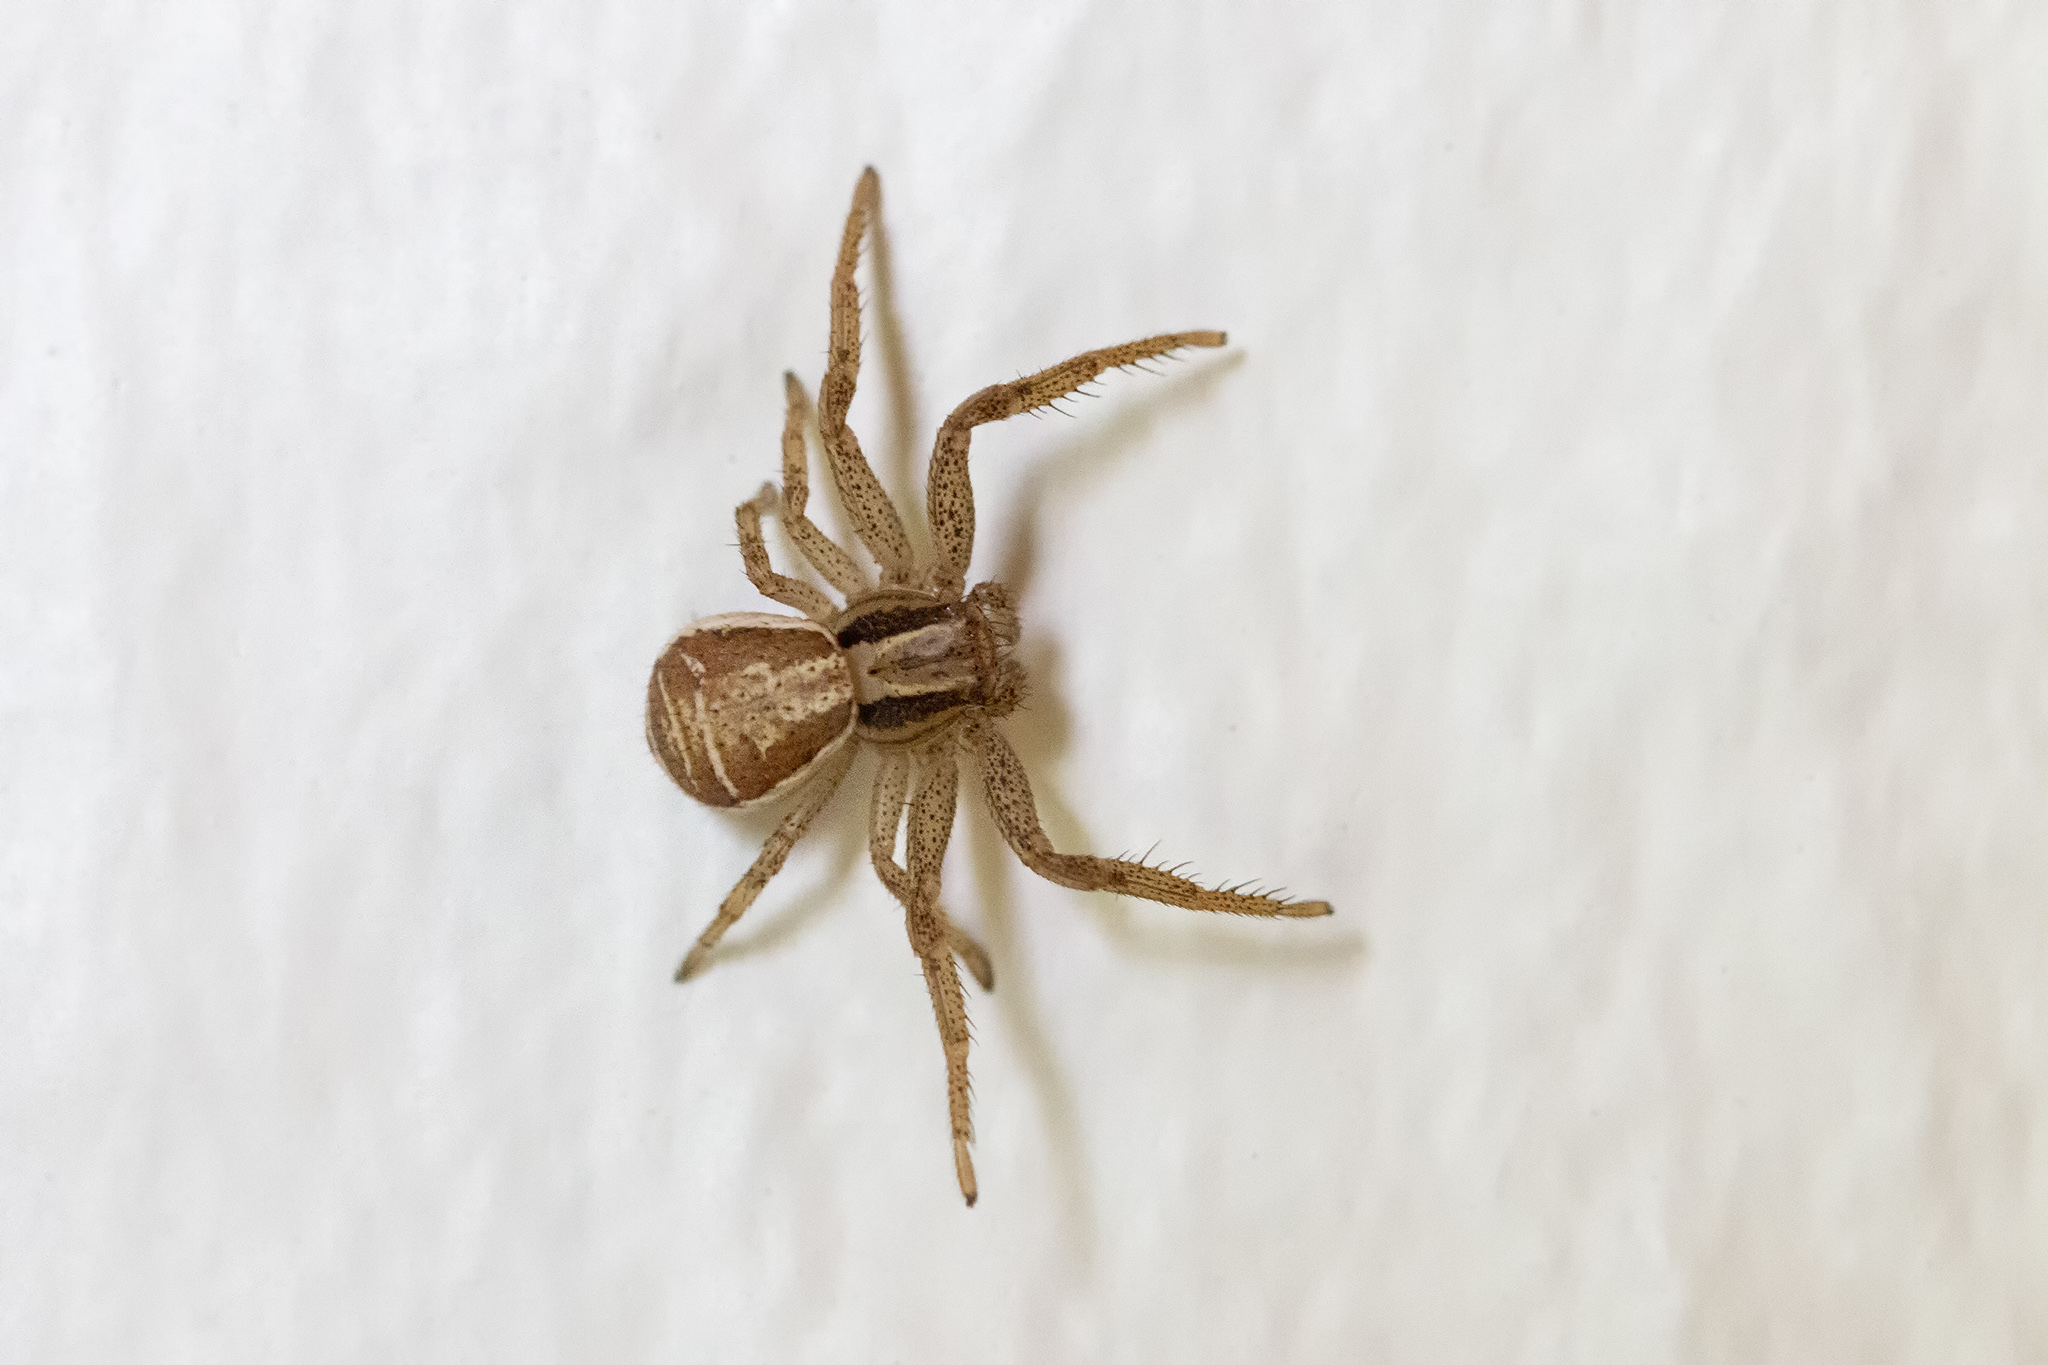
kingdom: Animalia
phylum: Arthropoda
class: Arachnida
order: Araneae
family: Thomisidae
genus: Xysticus
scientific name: Xysticus ulmi
